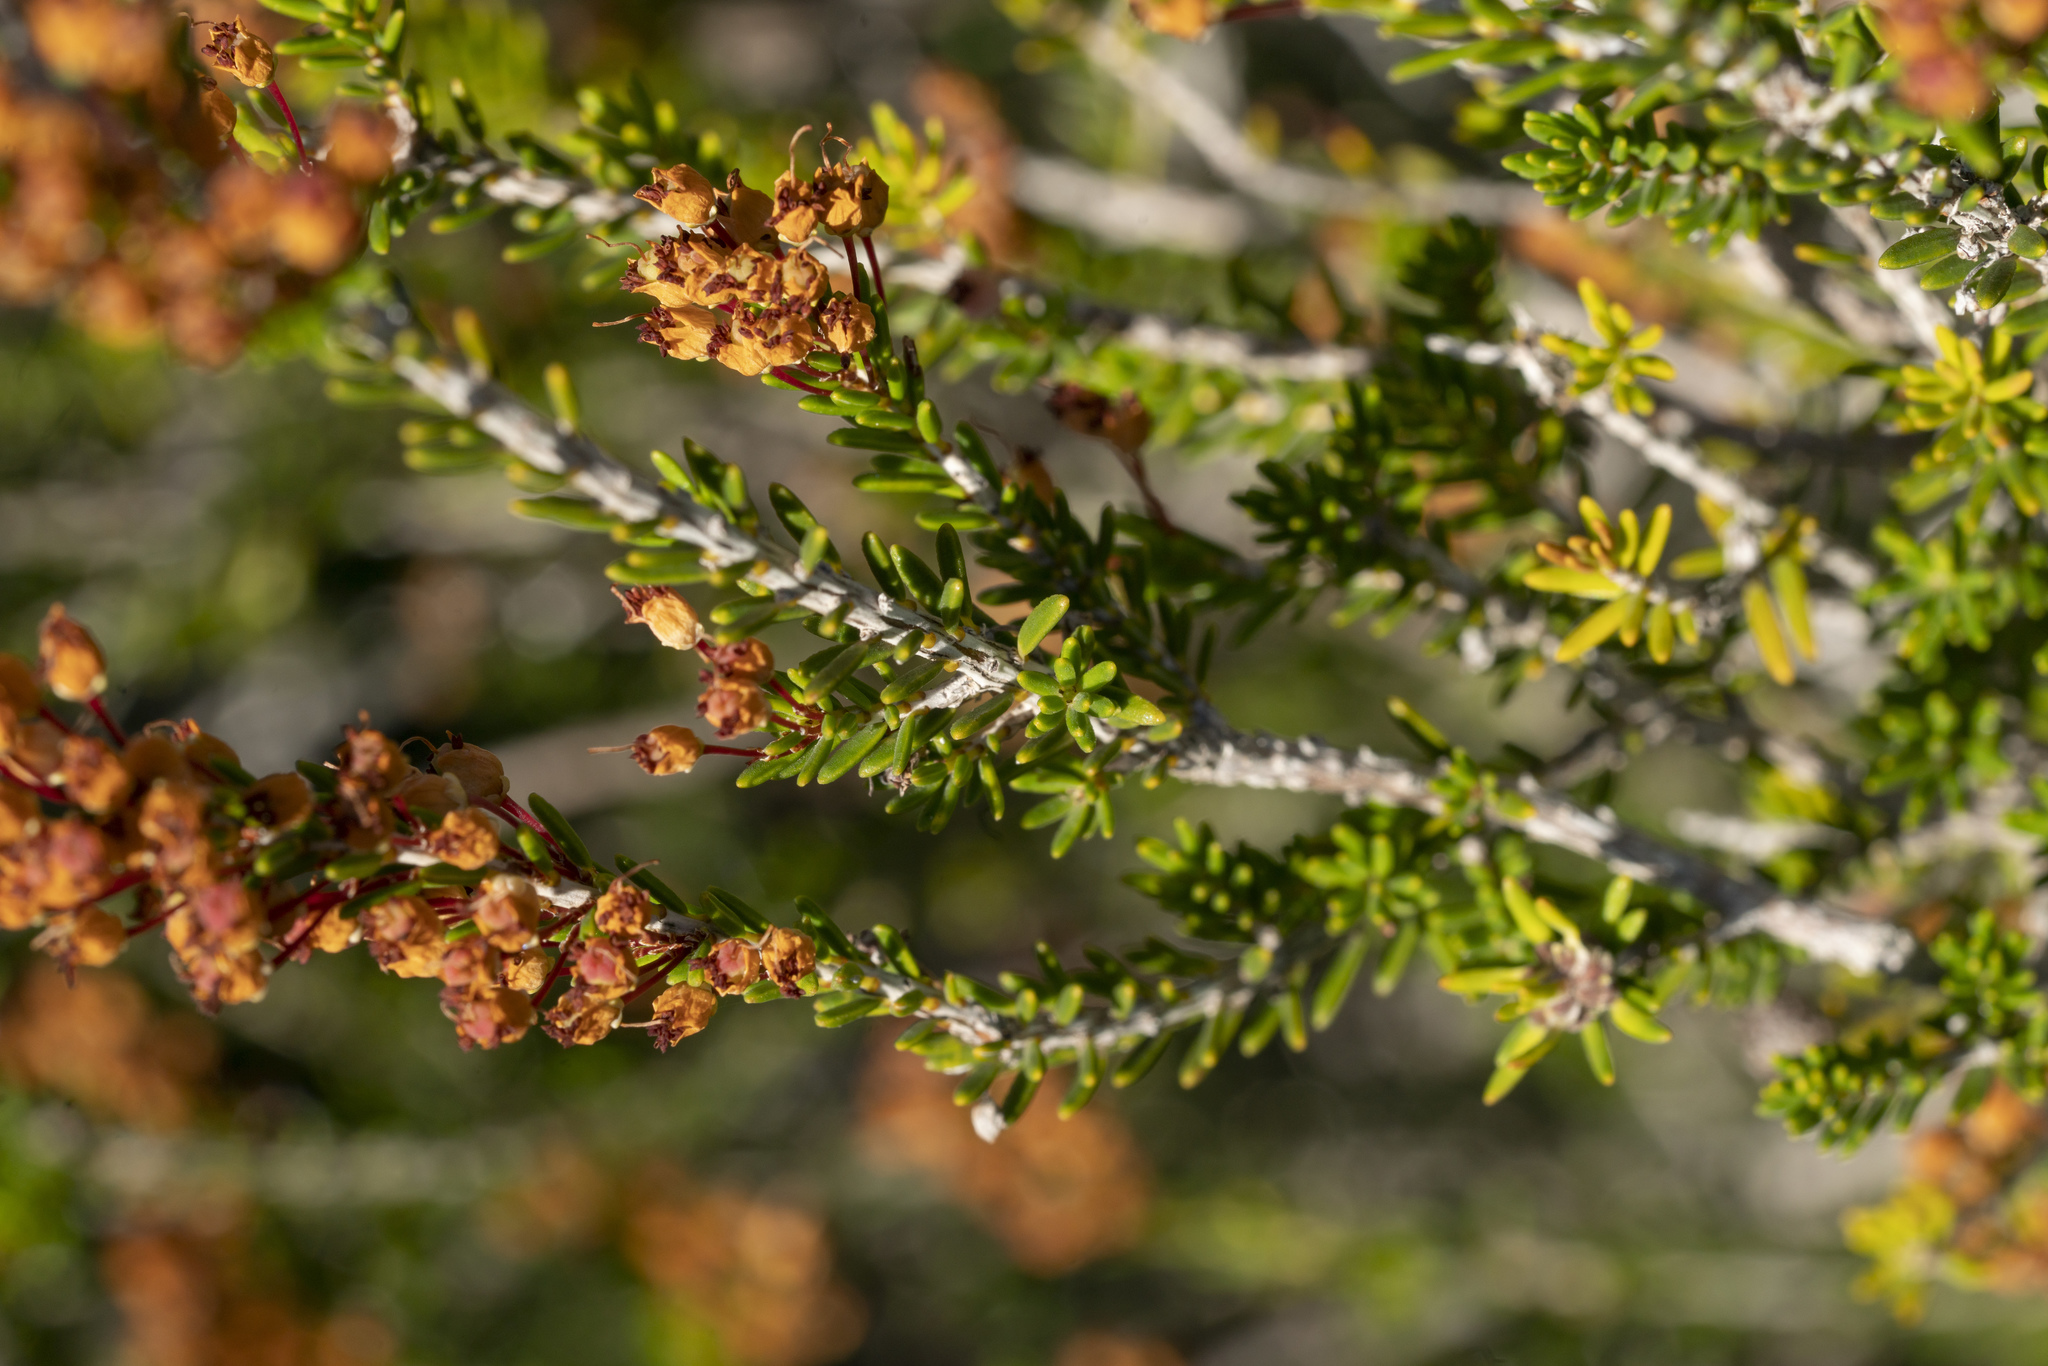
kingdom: Plantae
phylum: Tracheophyta
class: Magnoliopsida
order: Ericales
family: Ericaceae
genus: Erica
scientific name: Erica manipuliflora
